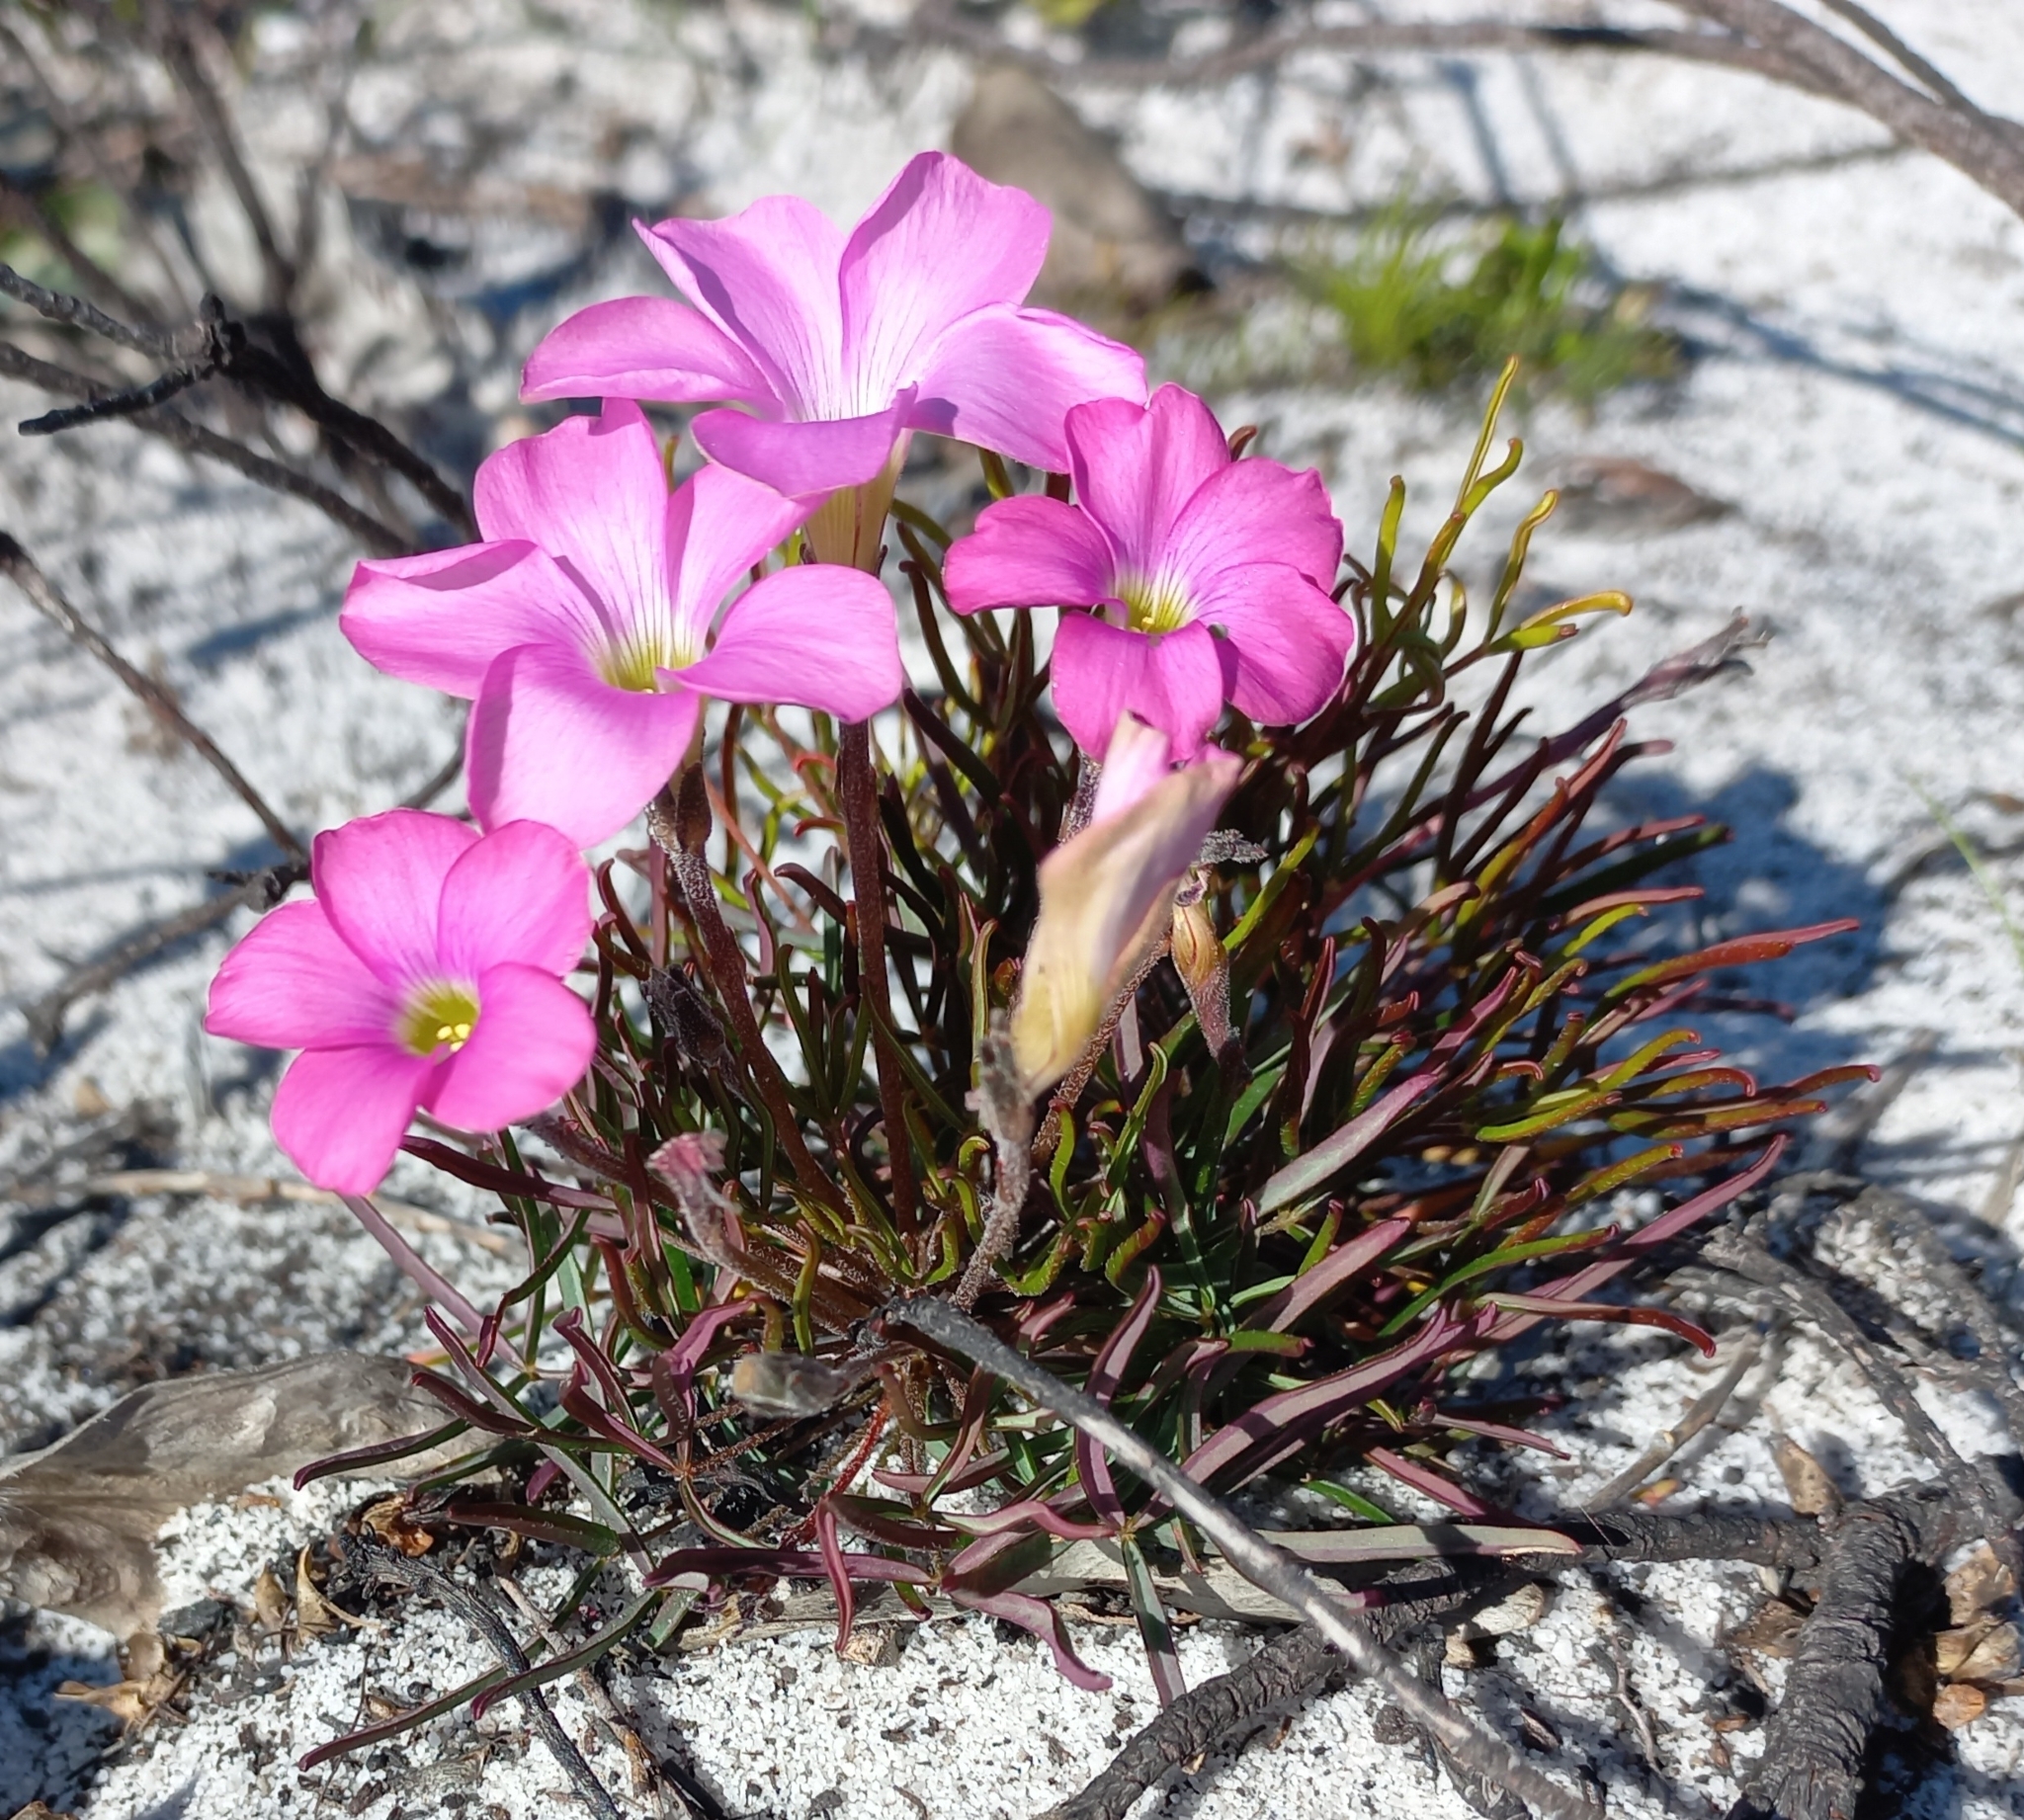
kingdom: Plantae
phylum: Tracheophyta
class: Magnoliopsida
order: Oxalidales
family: Oxalidaceae
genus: Oxalis
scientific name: Oxalis polyphylla
